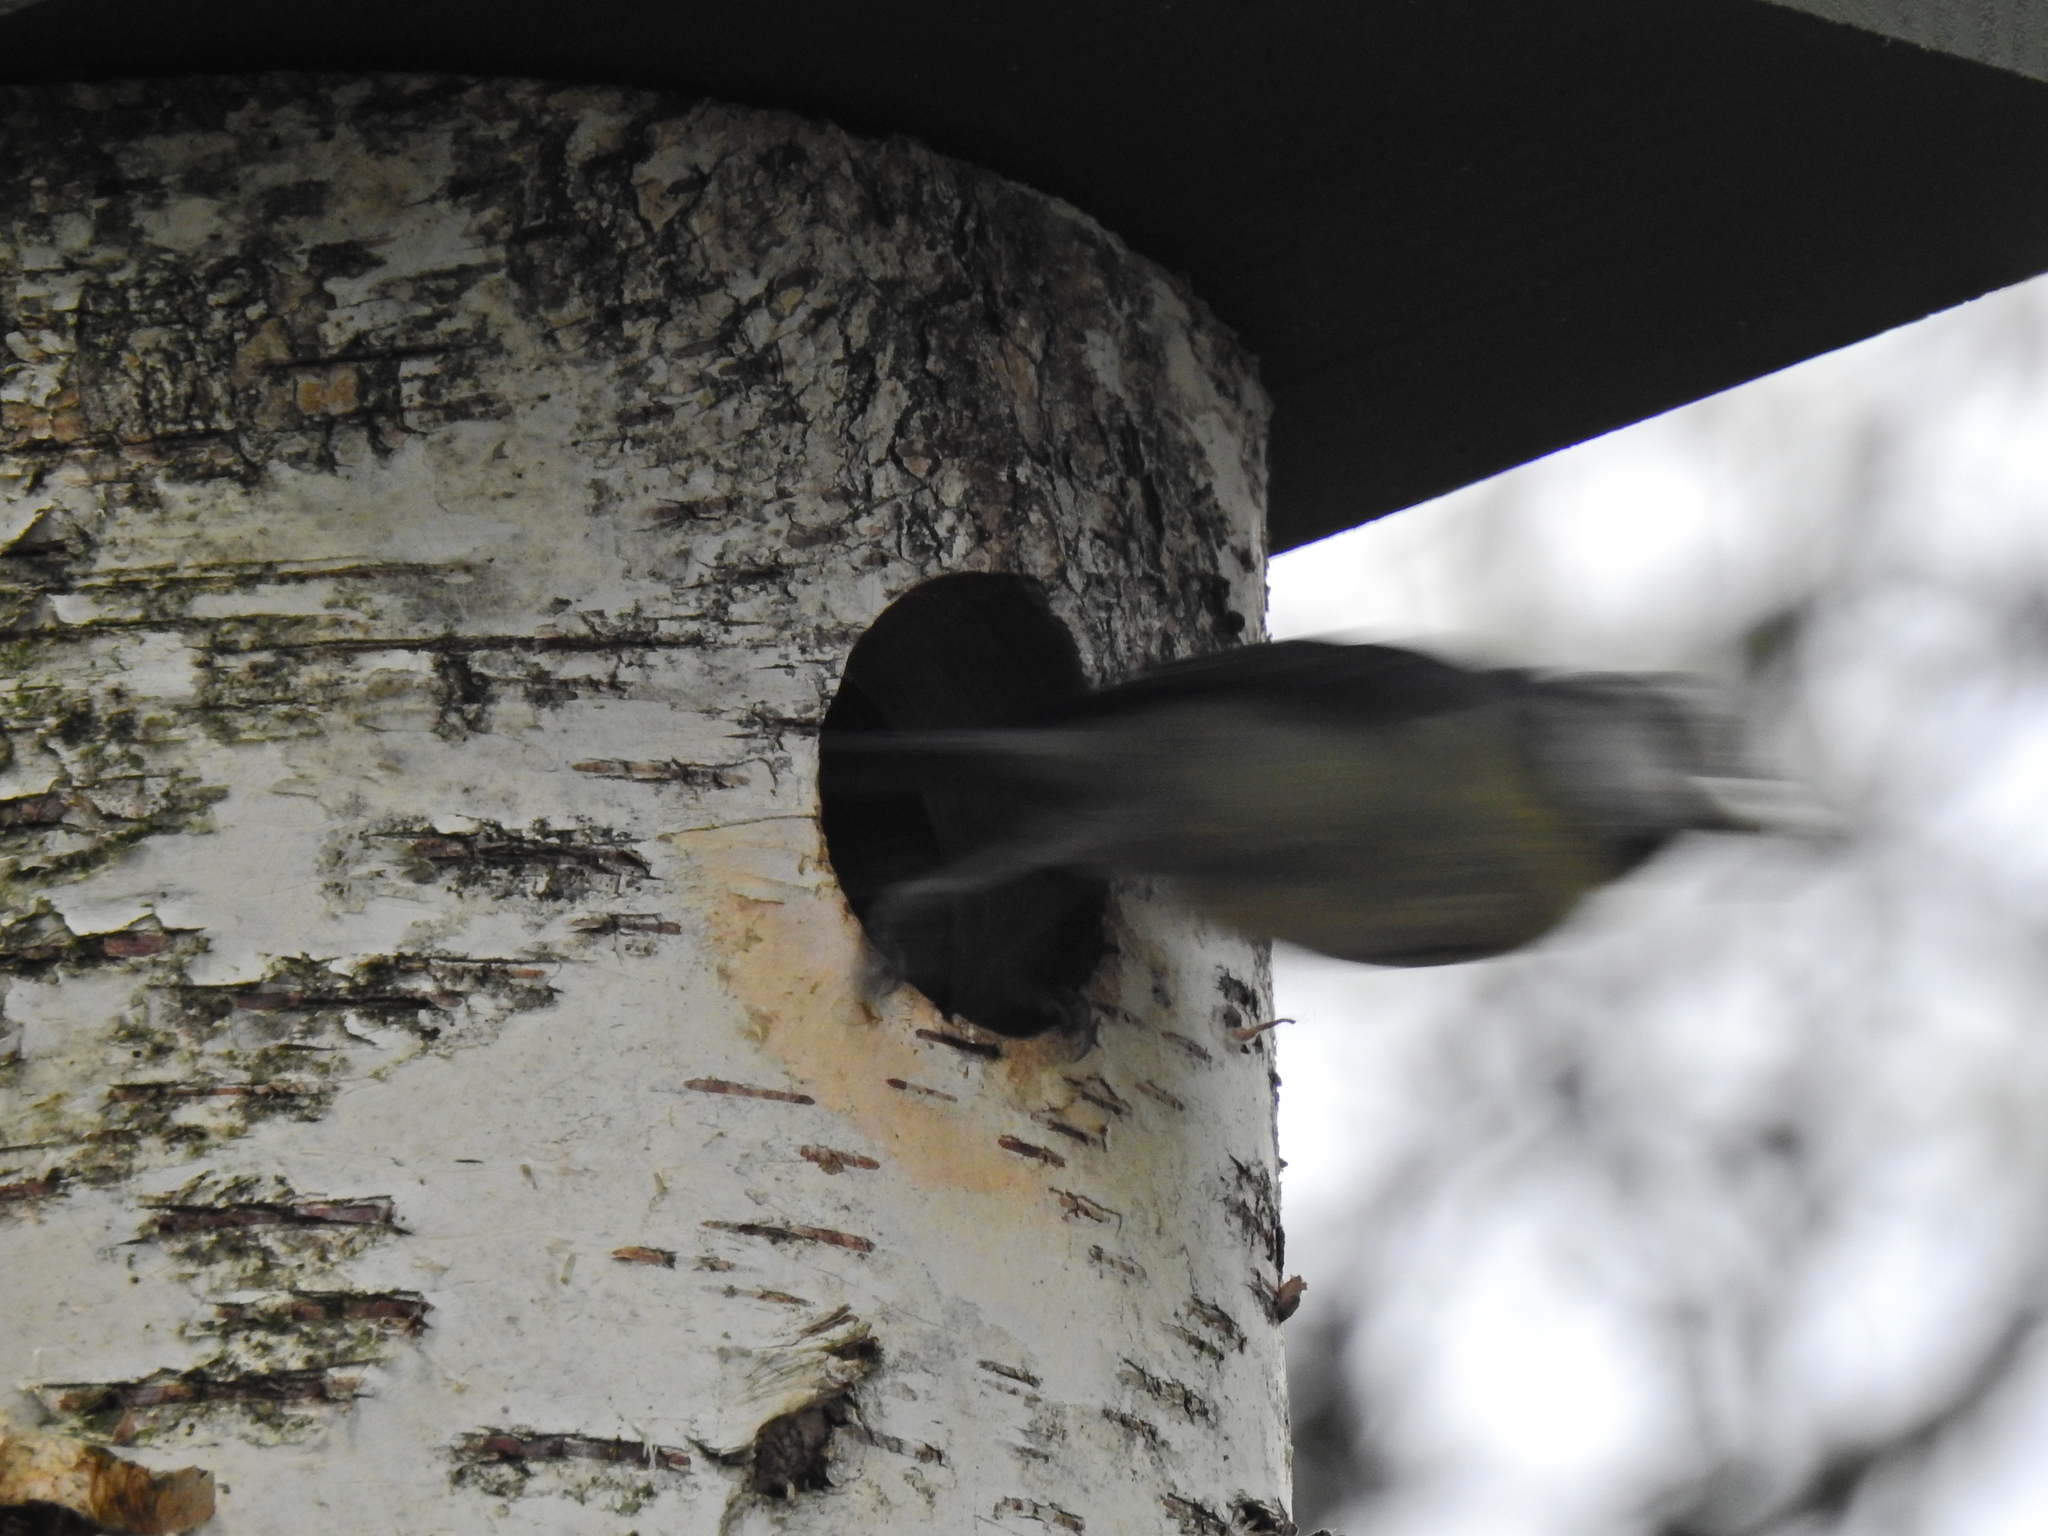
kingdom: Animalia
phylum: Chordata
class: Aves
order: Passeriformes
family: Paridae
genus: Cyanistes
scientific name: Cyanistes caeruleus
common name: Eurasian blue tit
